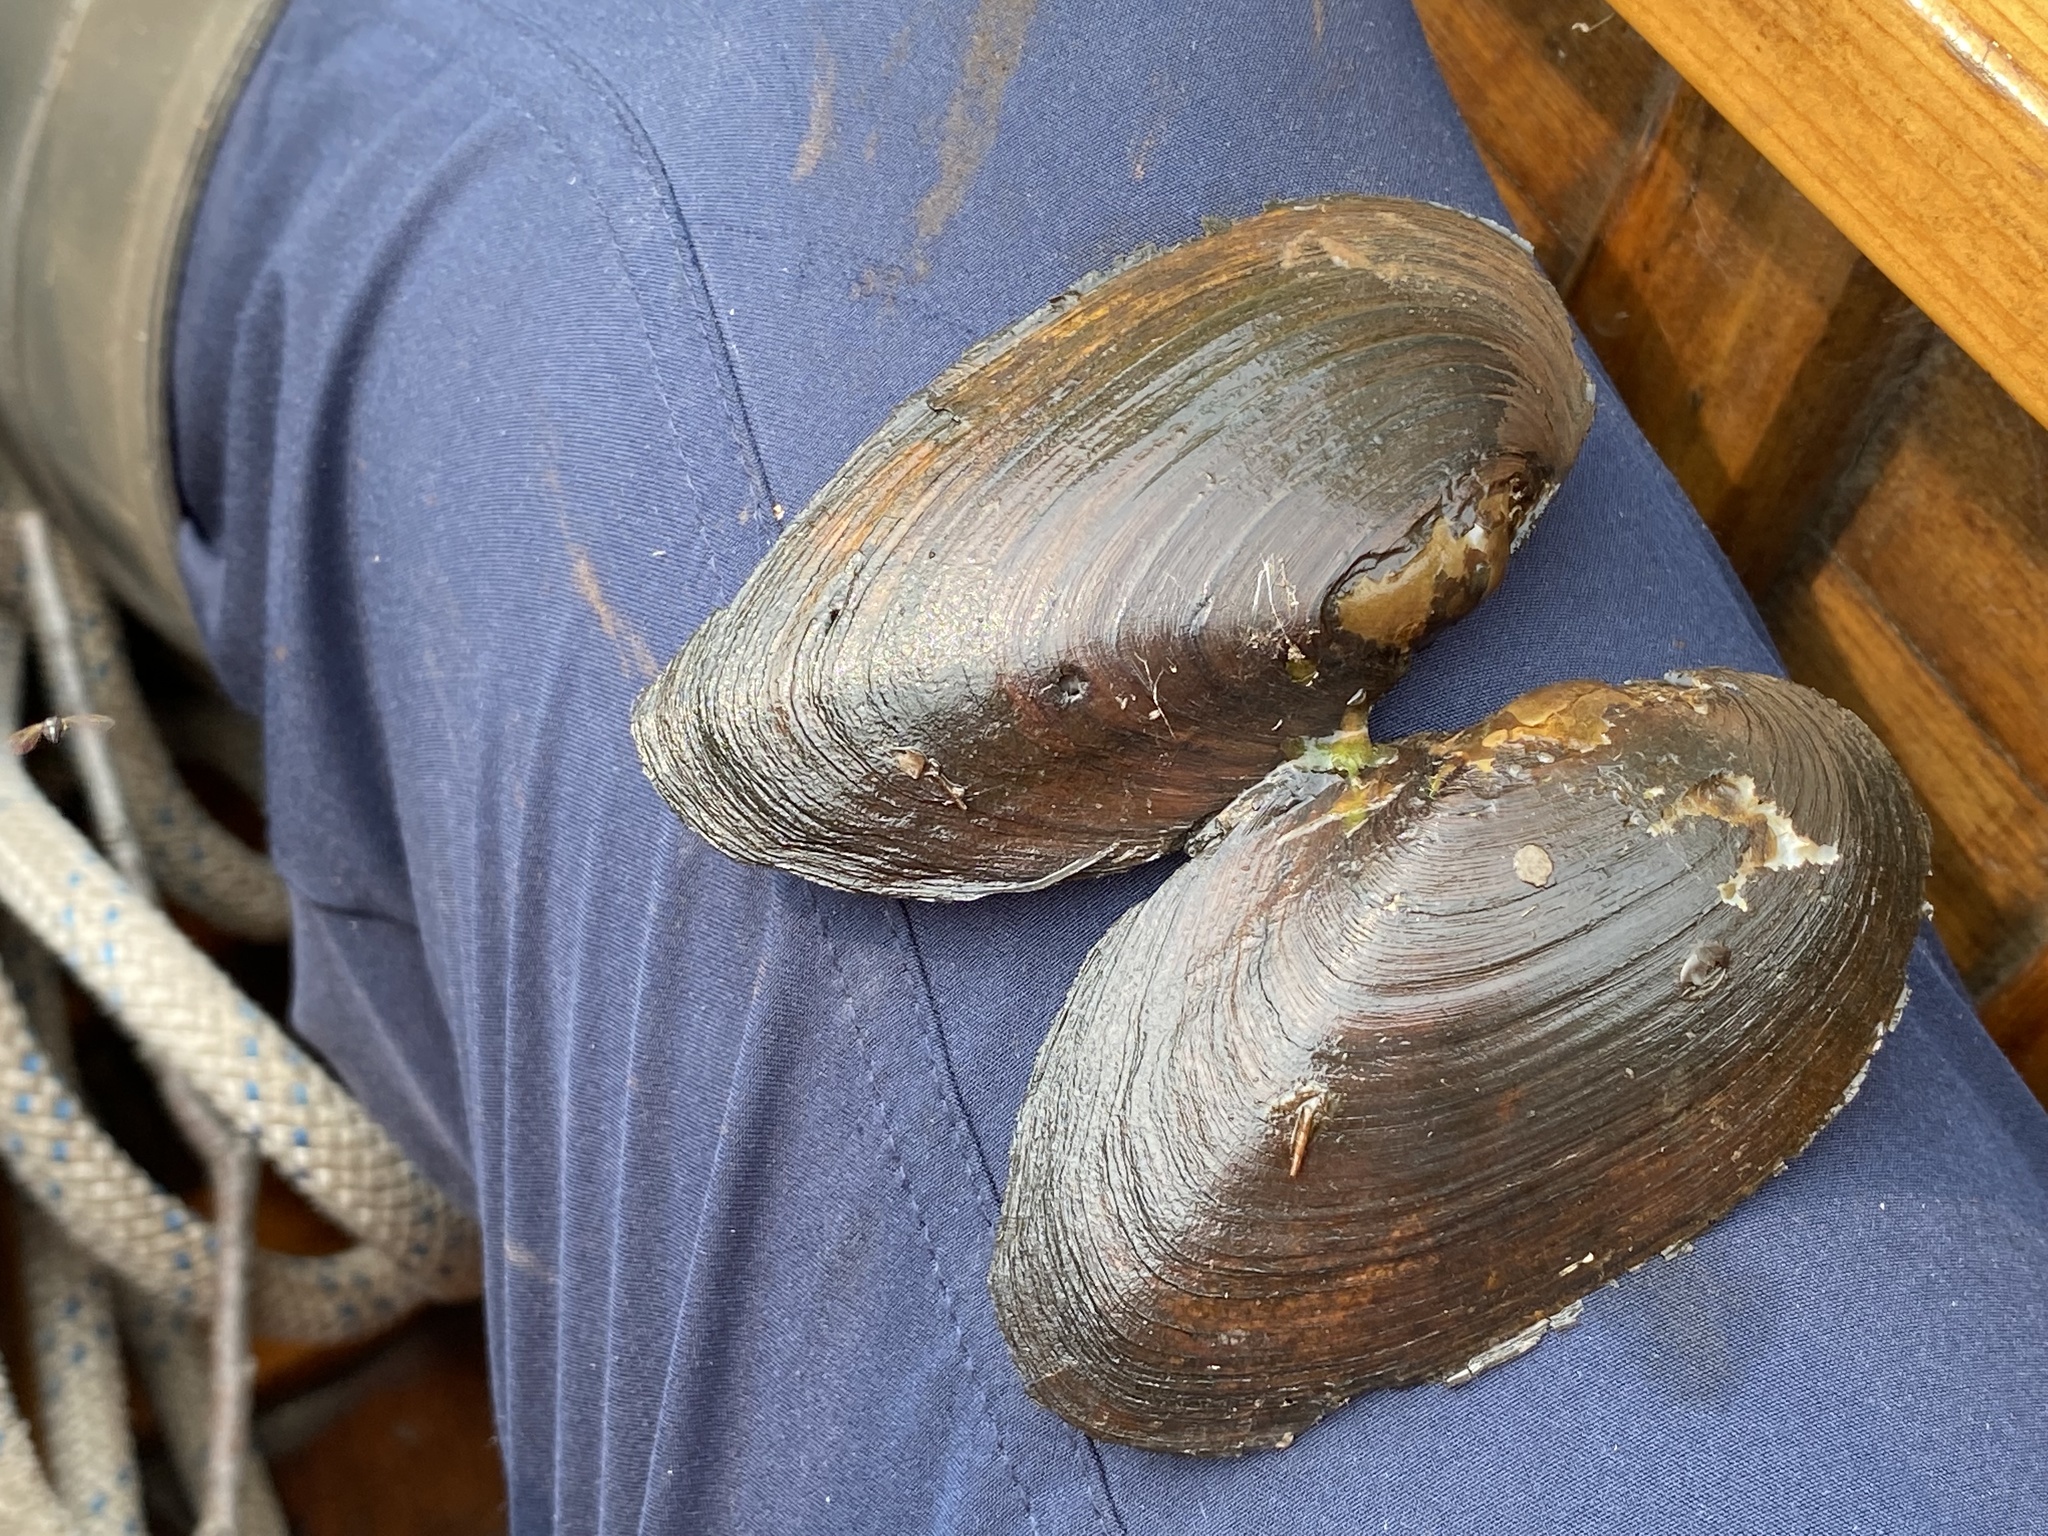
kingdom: Animalia
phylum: Mollusca
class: Bivalvia
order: Unionida
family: Unionidae
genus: Elliptio
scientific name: Elliptio complanata
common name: Eastern elliptio
